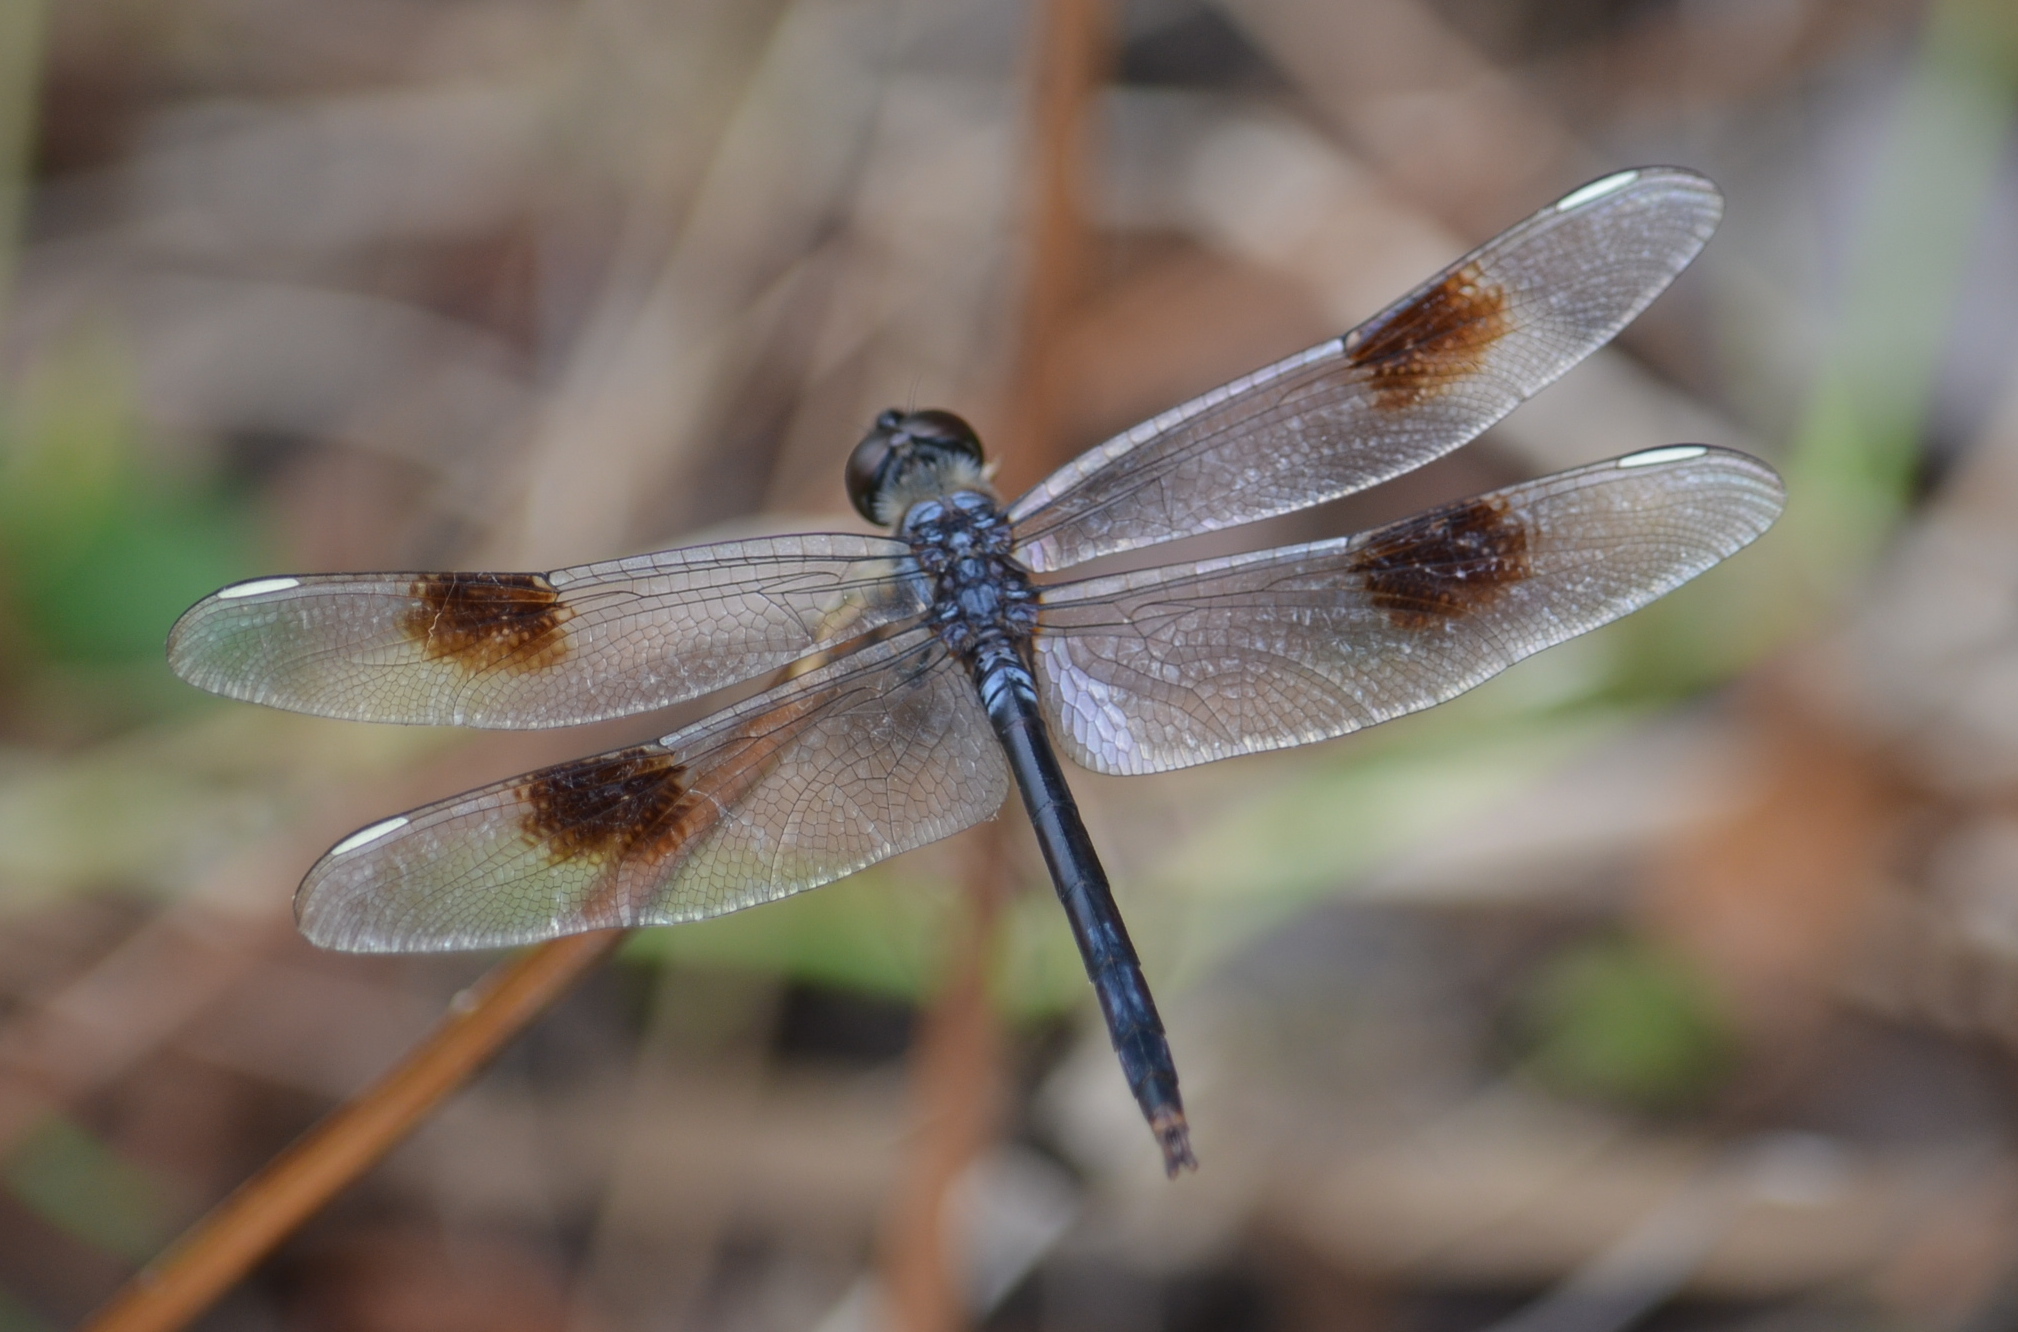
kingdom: Animalia
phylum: Arthropoda
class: Insecta
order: Odonata
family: Libellulidae
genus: Brachymesia
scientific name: Brachymesia gravida
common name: Four-spotted pennant
